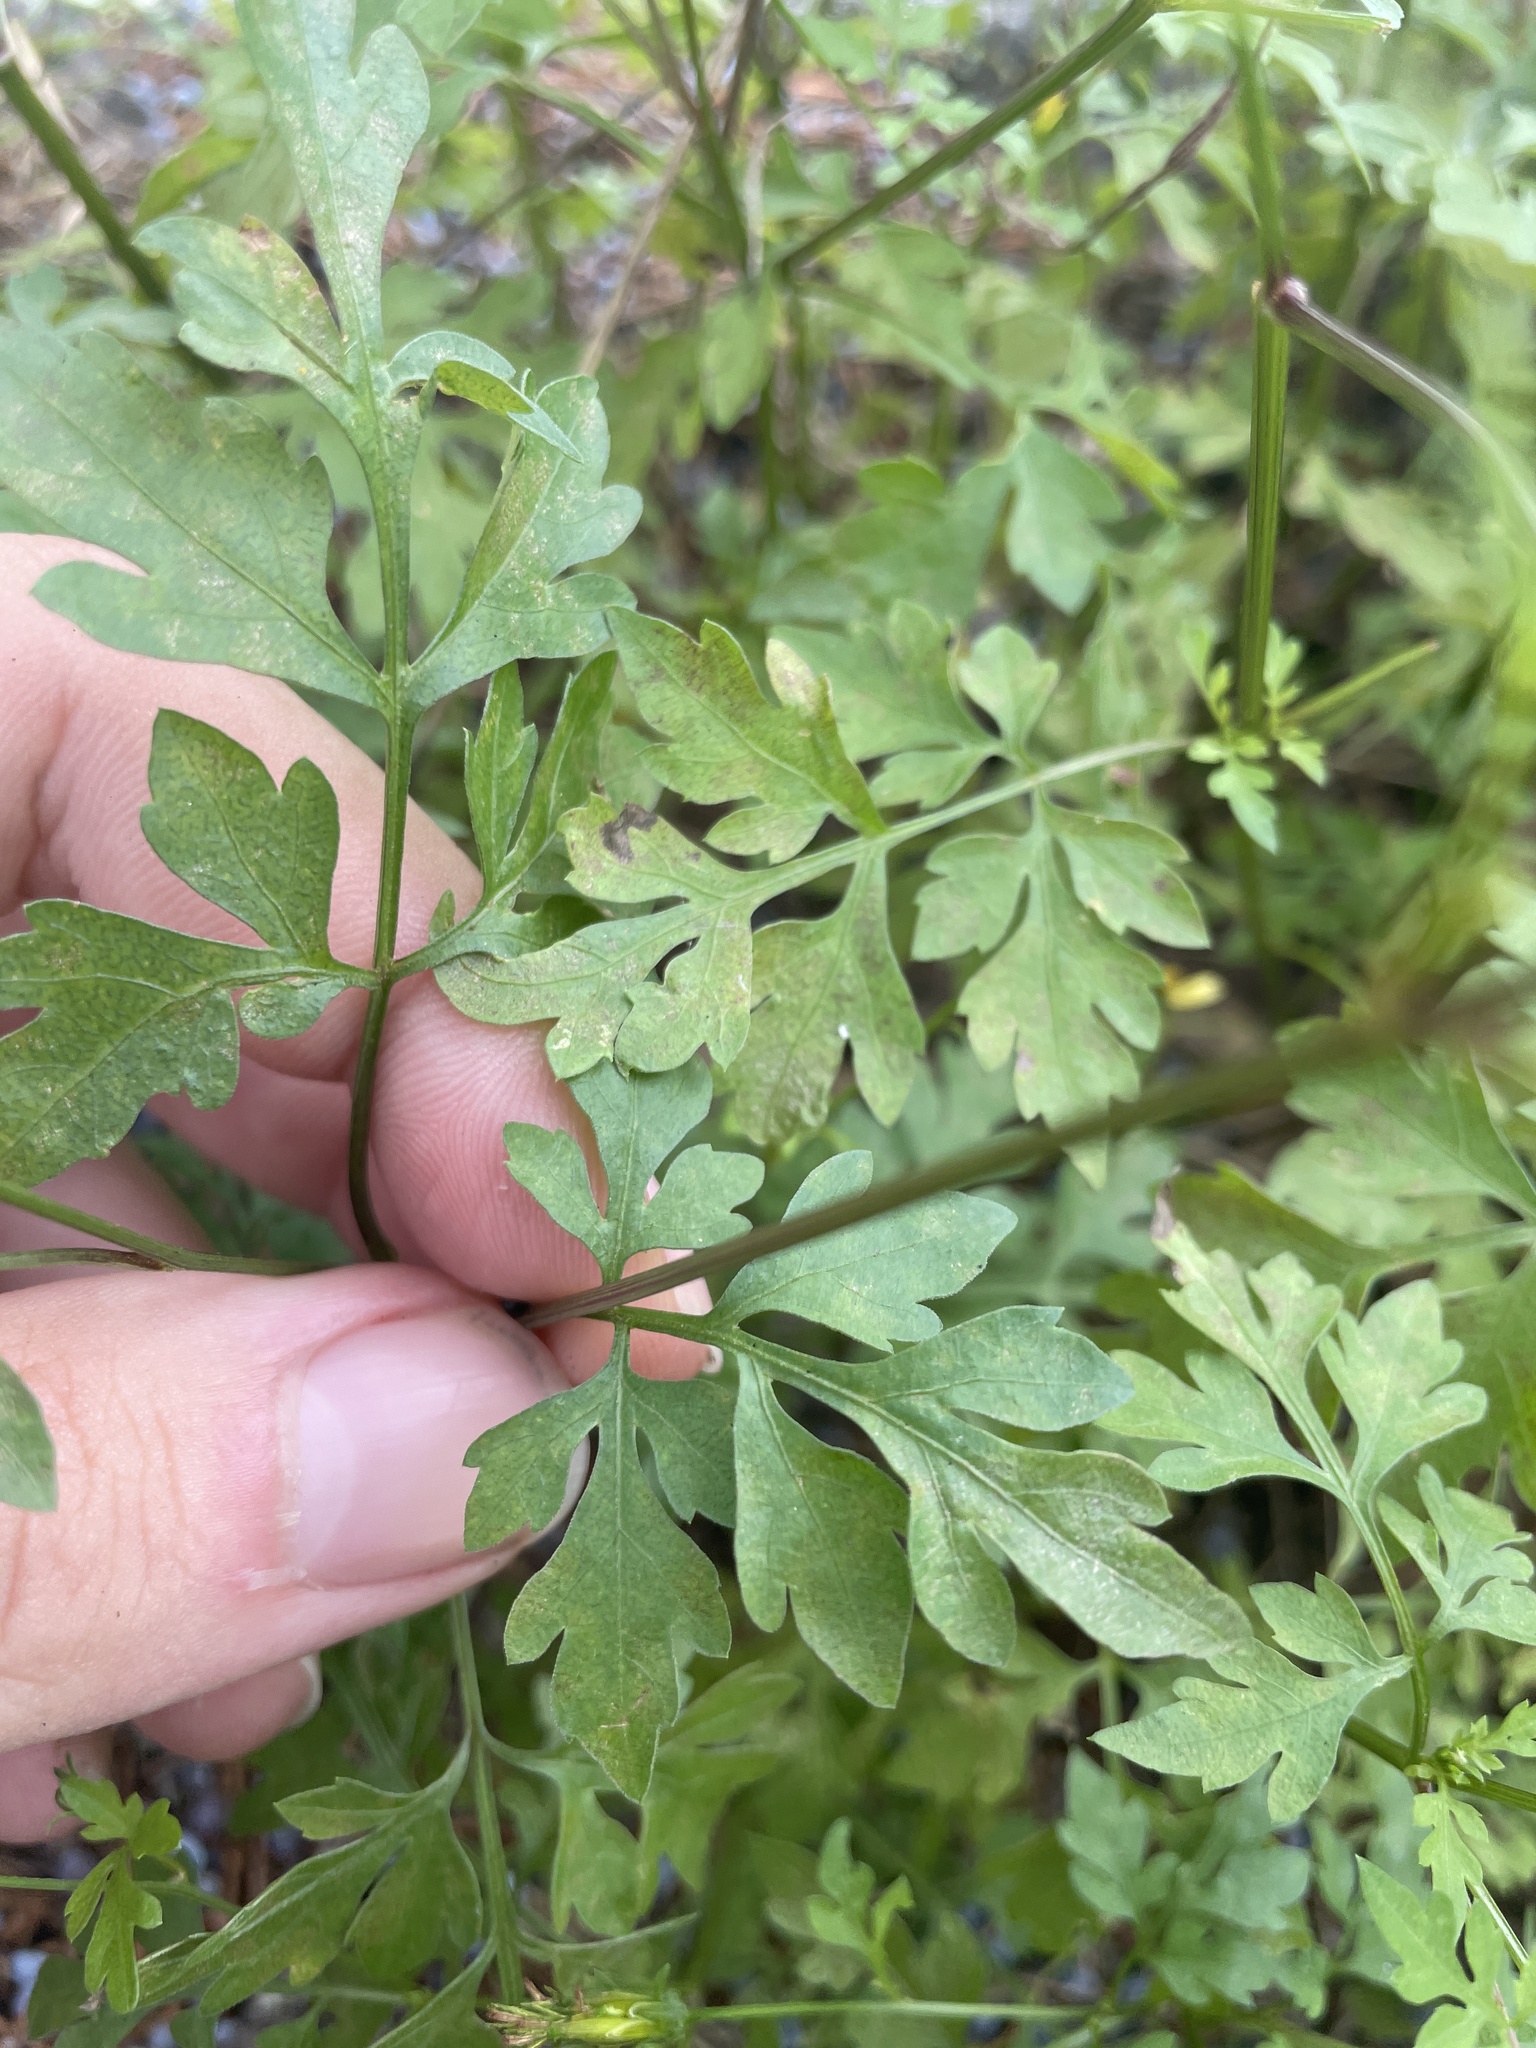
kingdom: Plantae
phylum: Tracheophyta
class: Magnoliopsida
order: Asterales
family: Asteraceae
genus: Bidens
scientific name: Bidens bipinnata
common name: Spanish-needles
